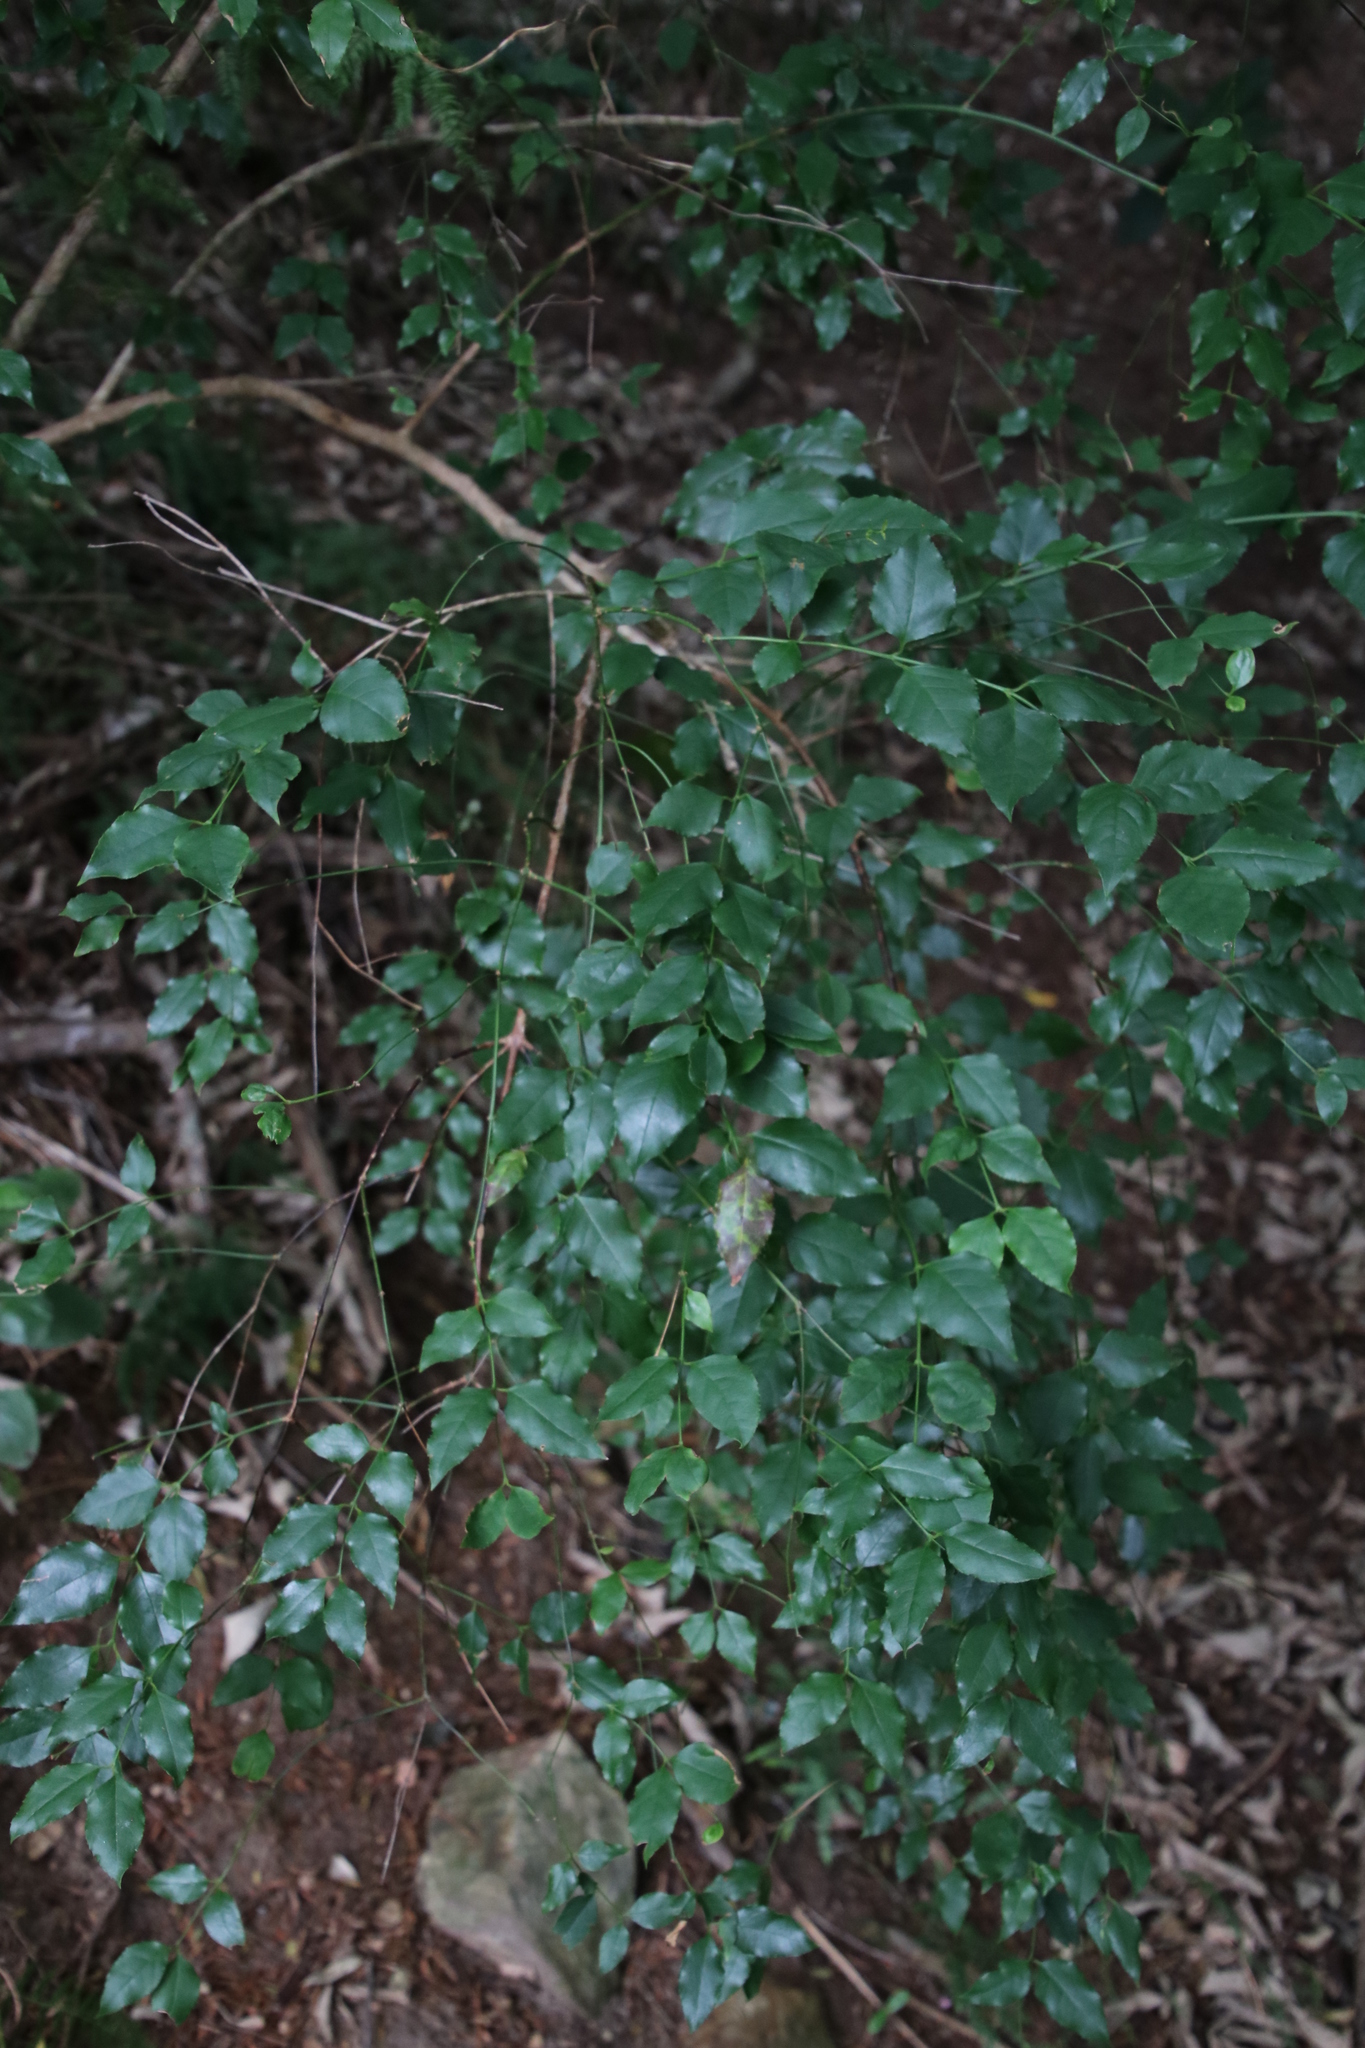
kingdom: Plantae
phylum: Tracheophyta
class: Magnoliopsida
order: Lamiales
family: Stilbaceae
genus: Halleria
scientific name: Halleria lucida
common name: Tree fuschia
